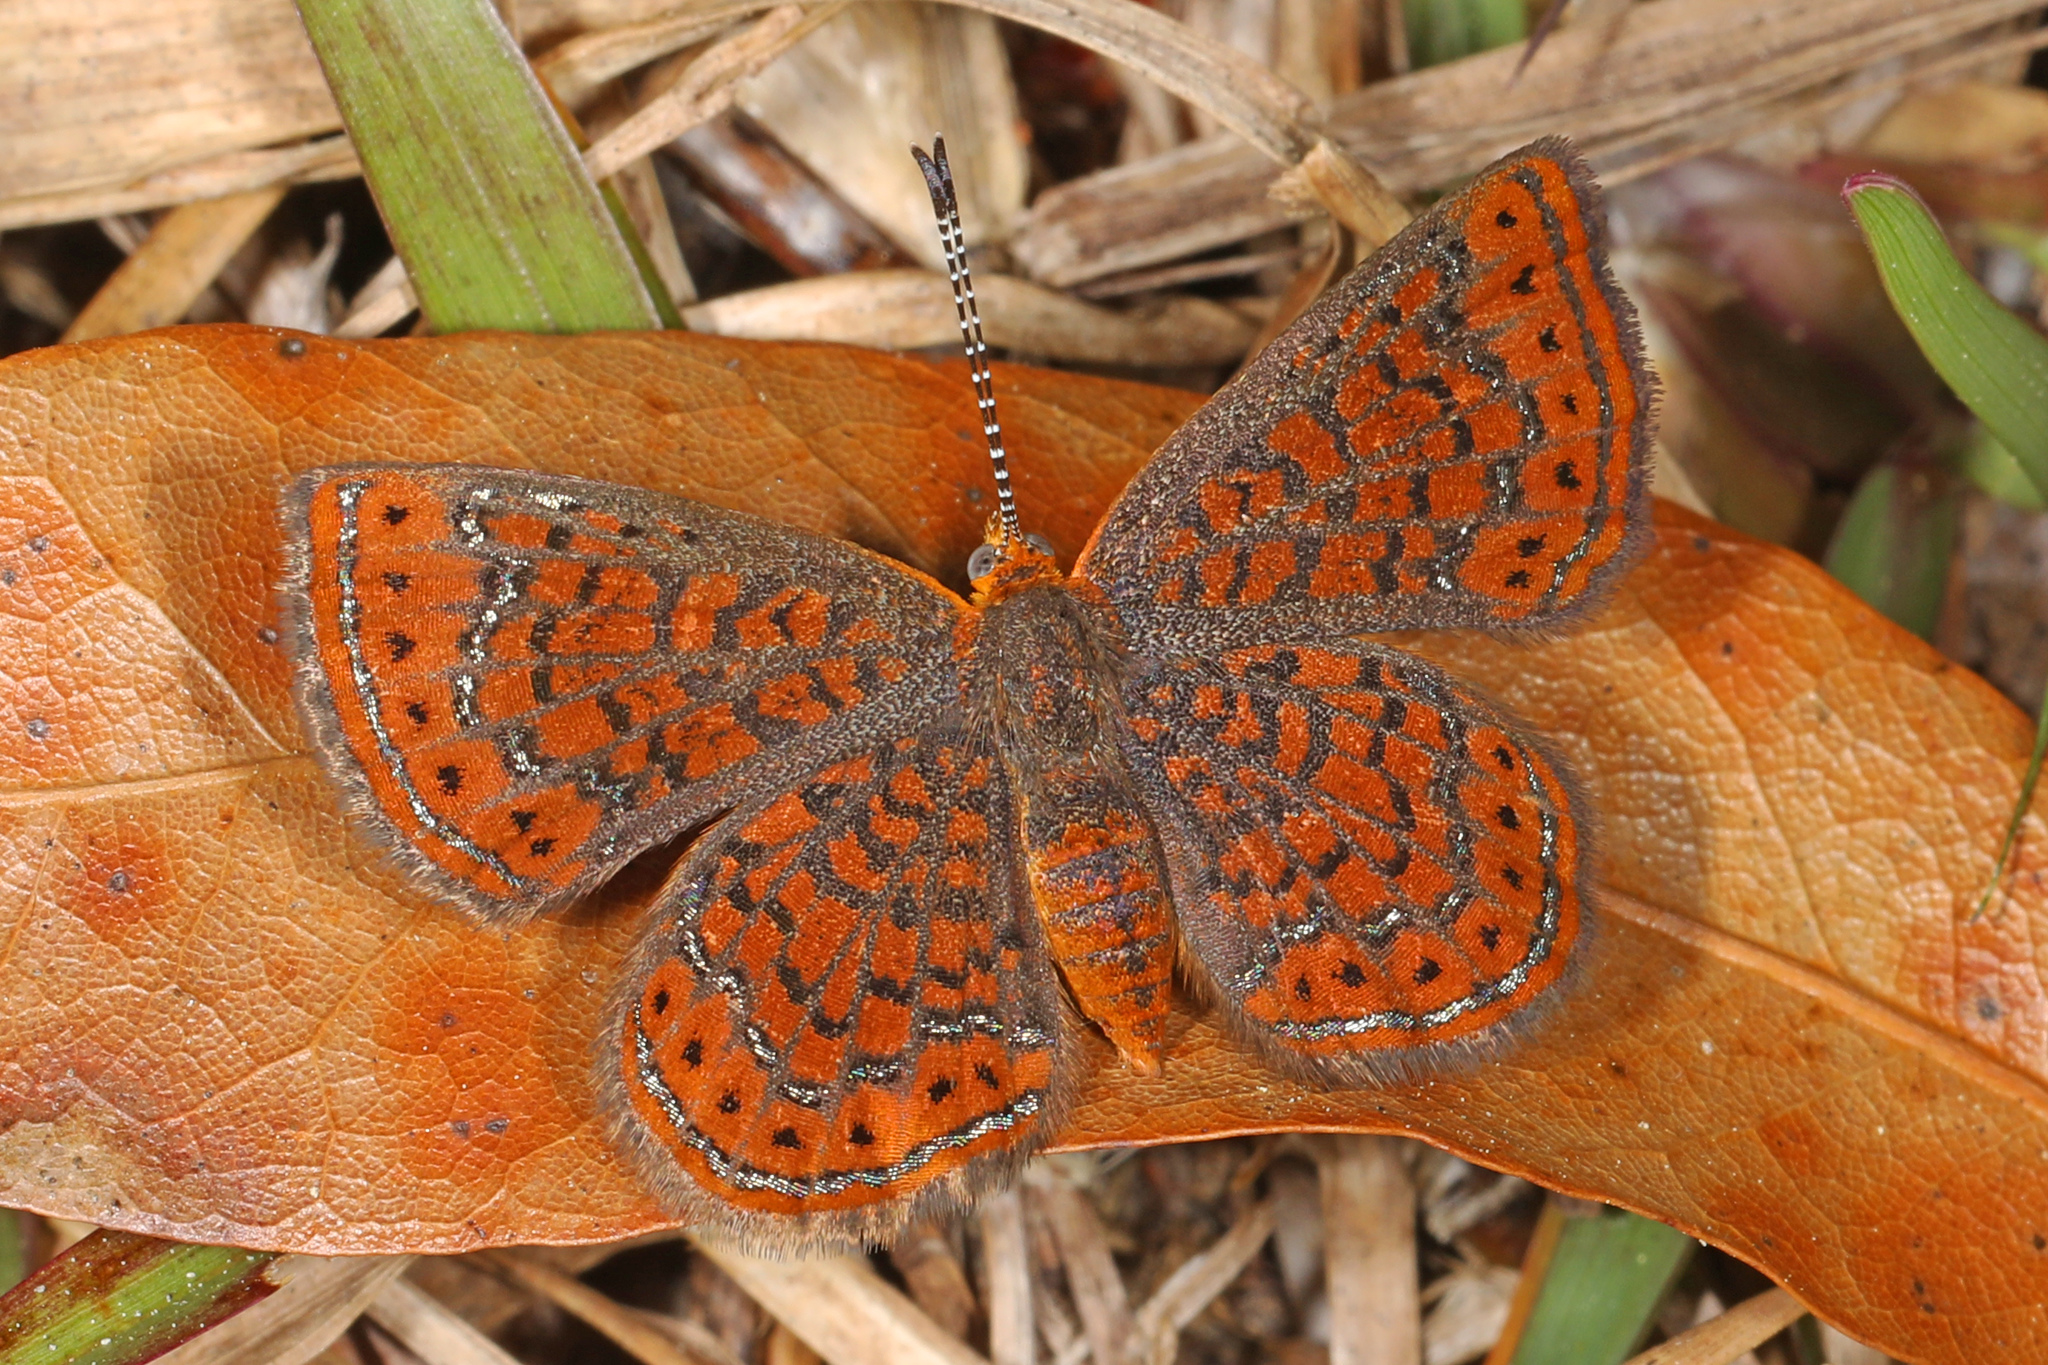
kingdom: Animalia
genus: Calephelis
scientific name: Calephelis virginiensis
